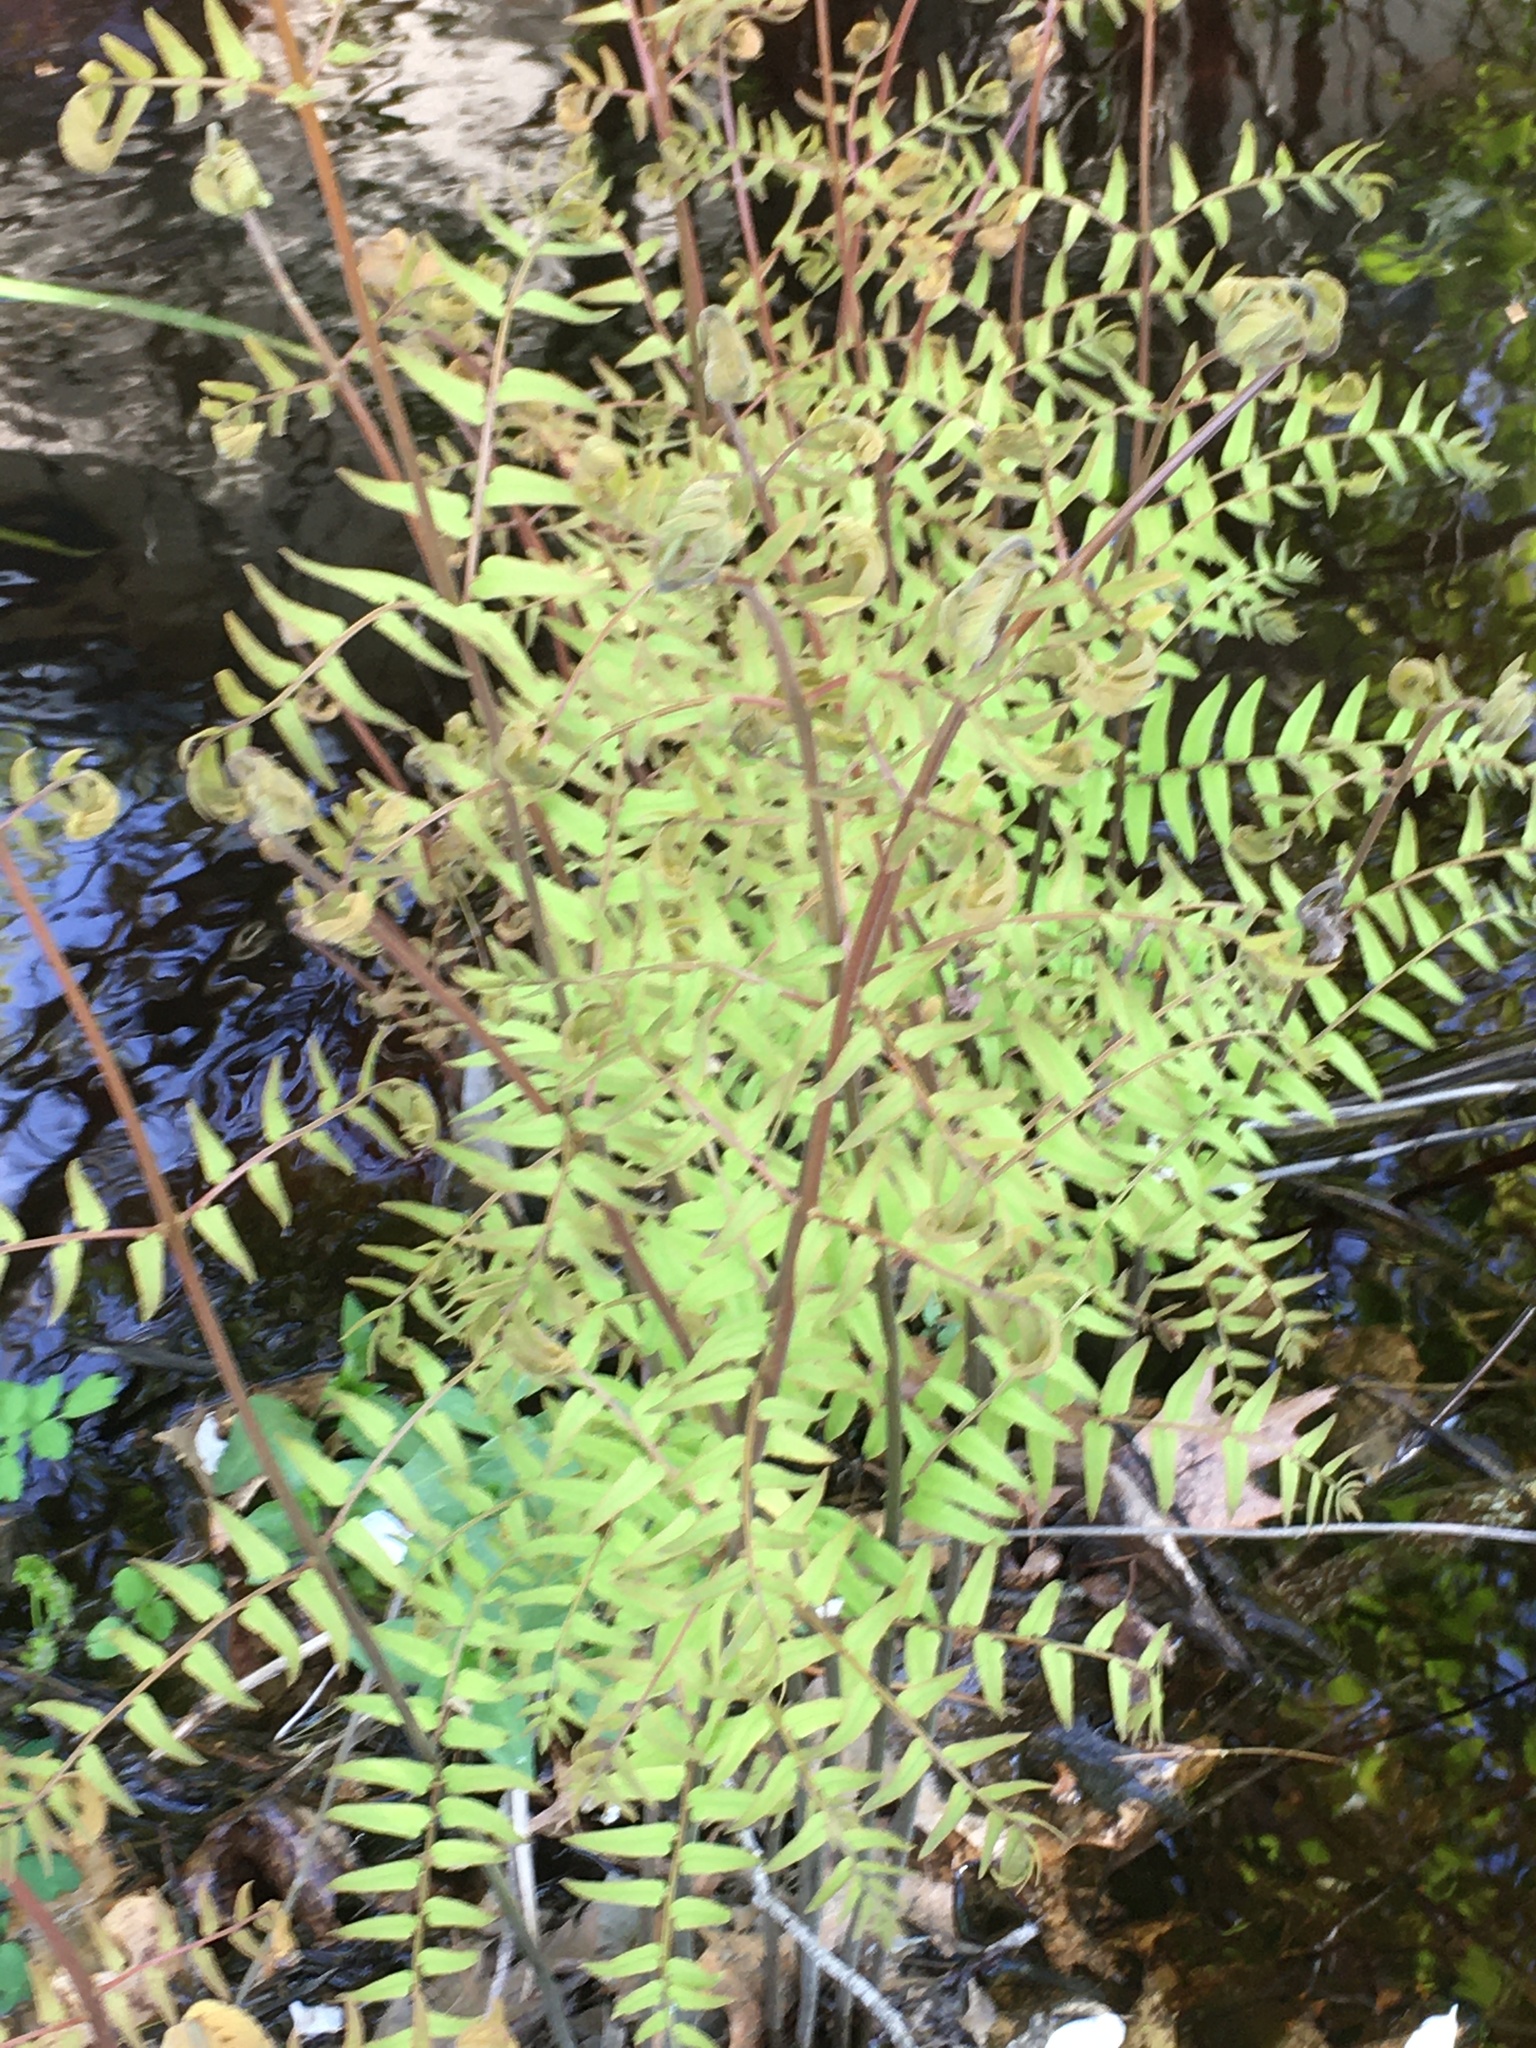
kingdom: Plantae
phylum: Tracheophyta
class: Polypodiopsida
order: Osmundales
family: Osmundaceae
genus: Osmunda
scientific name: Osmunda spectabilis
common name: American royal fern
